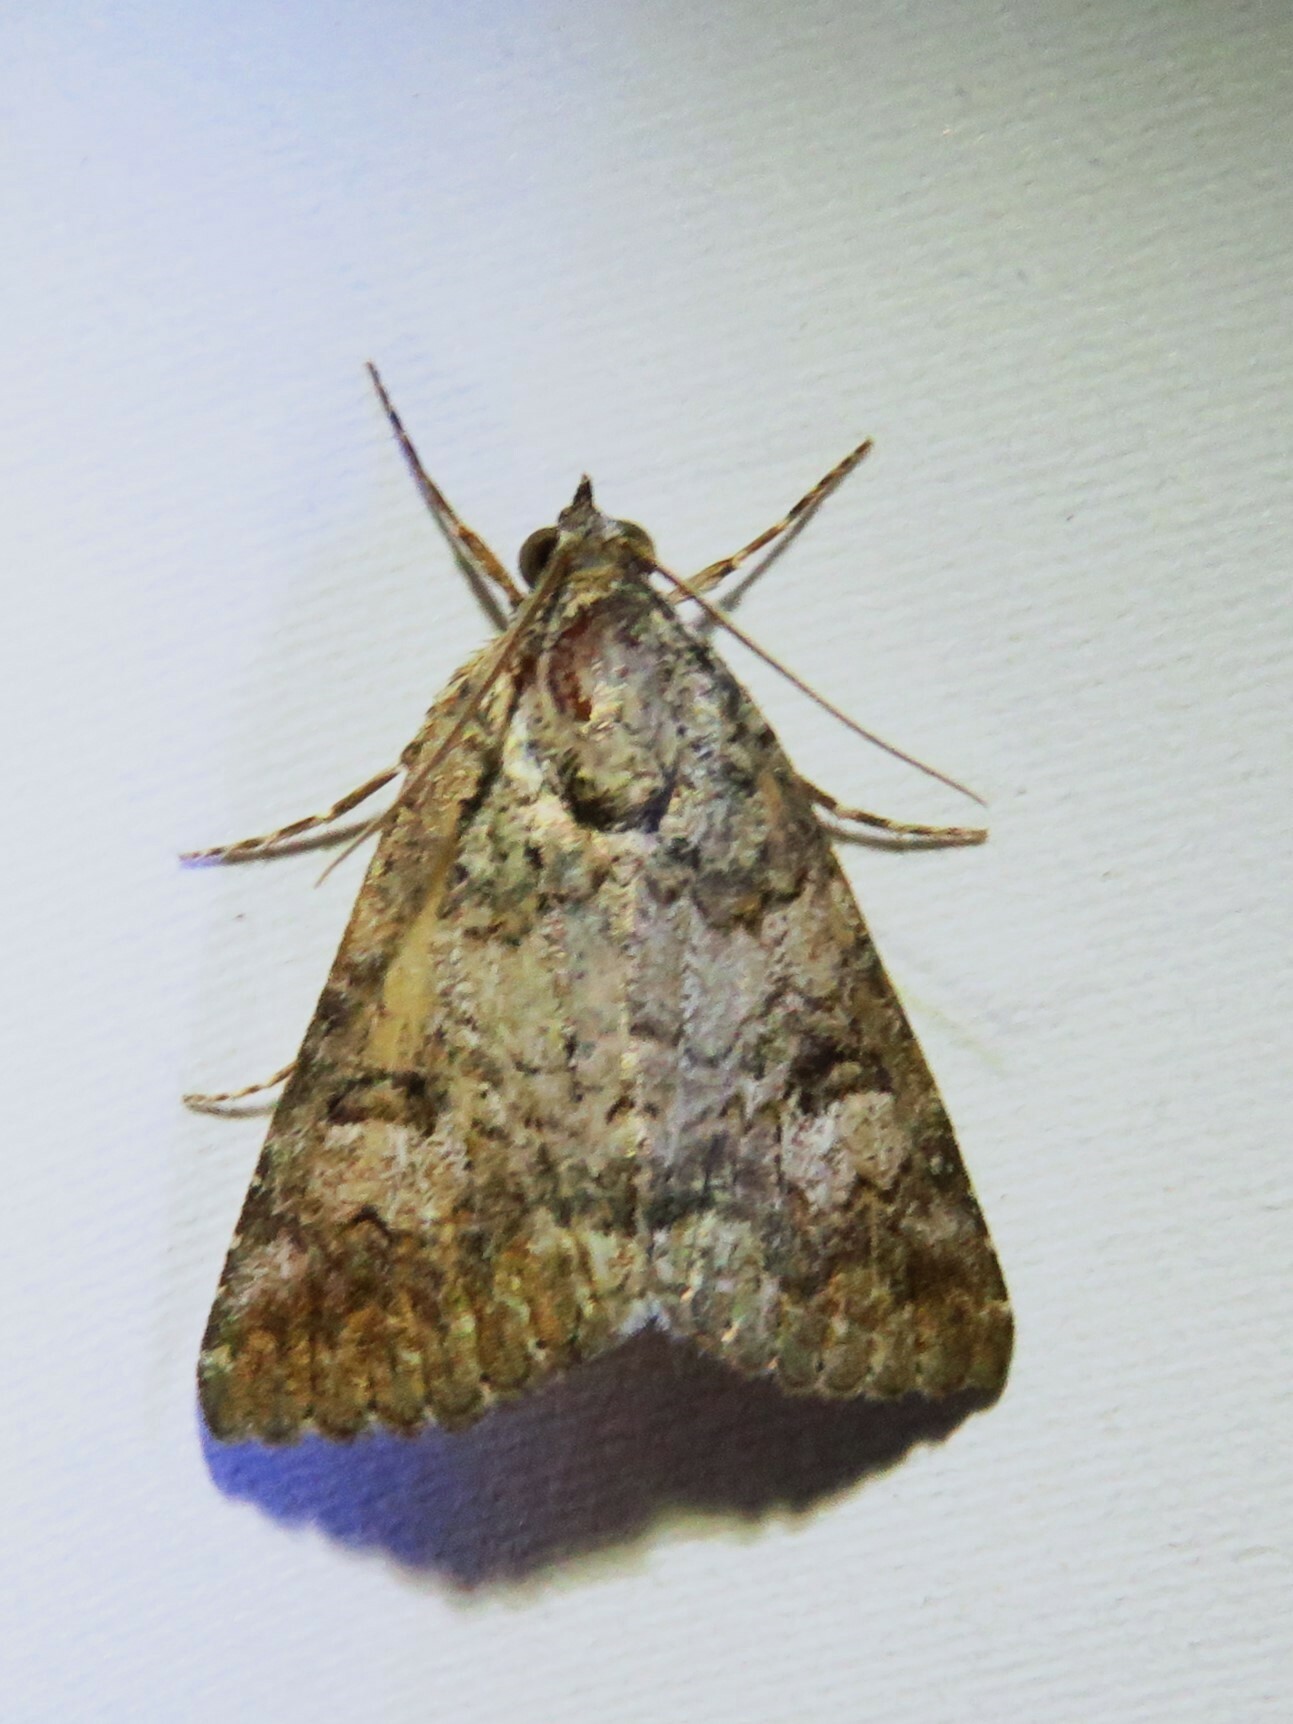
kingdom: Animalia
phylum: Arthropoda
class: Insecta
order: Lepidoptera
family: Erebidae
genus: Eubolina
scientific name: Eubolina impartialis
